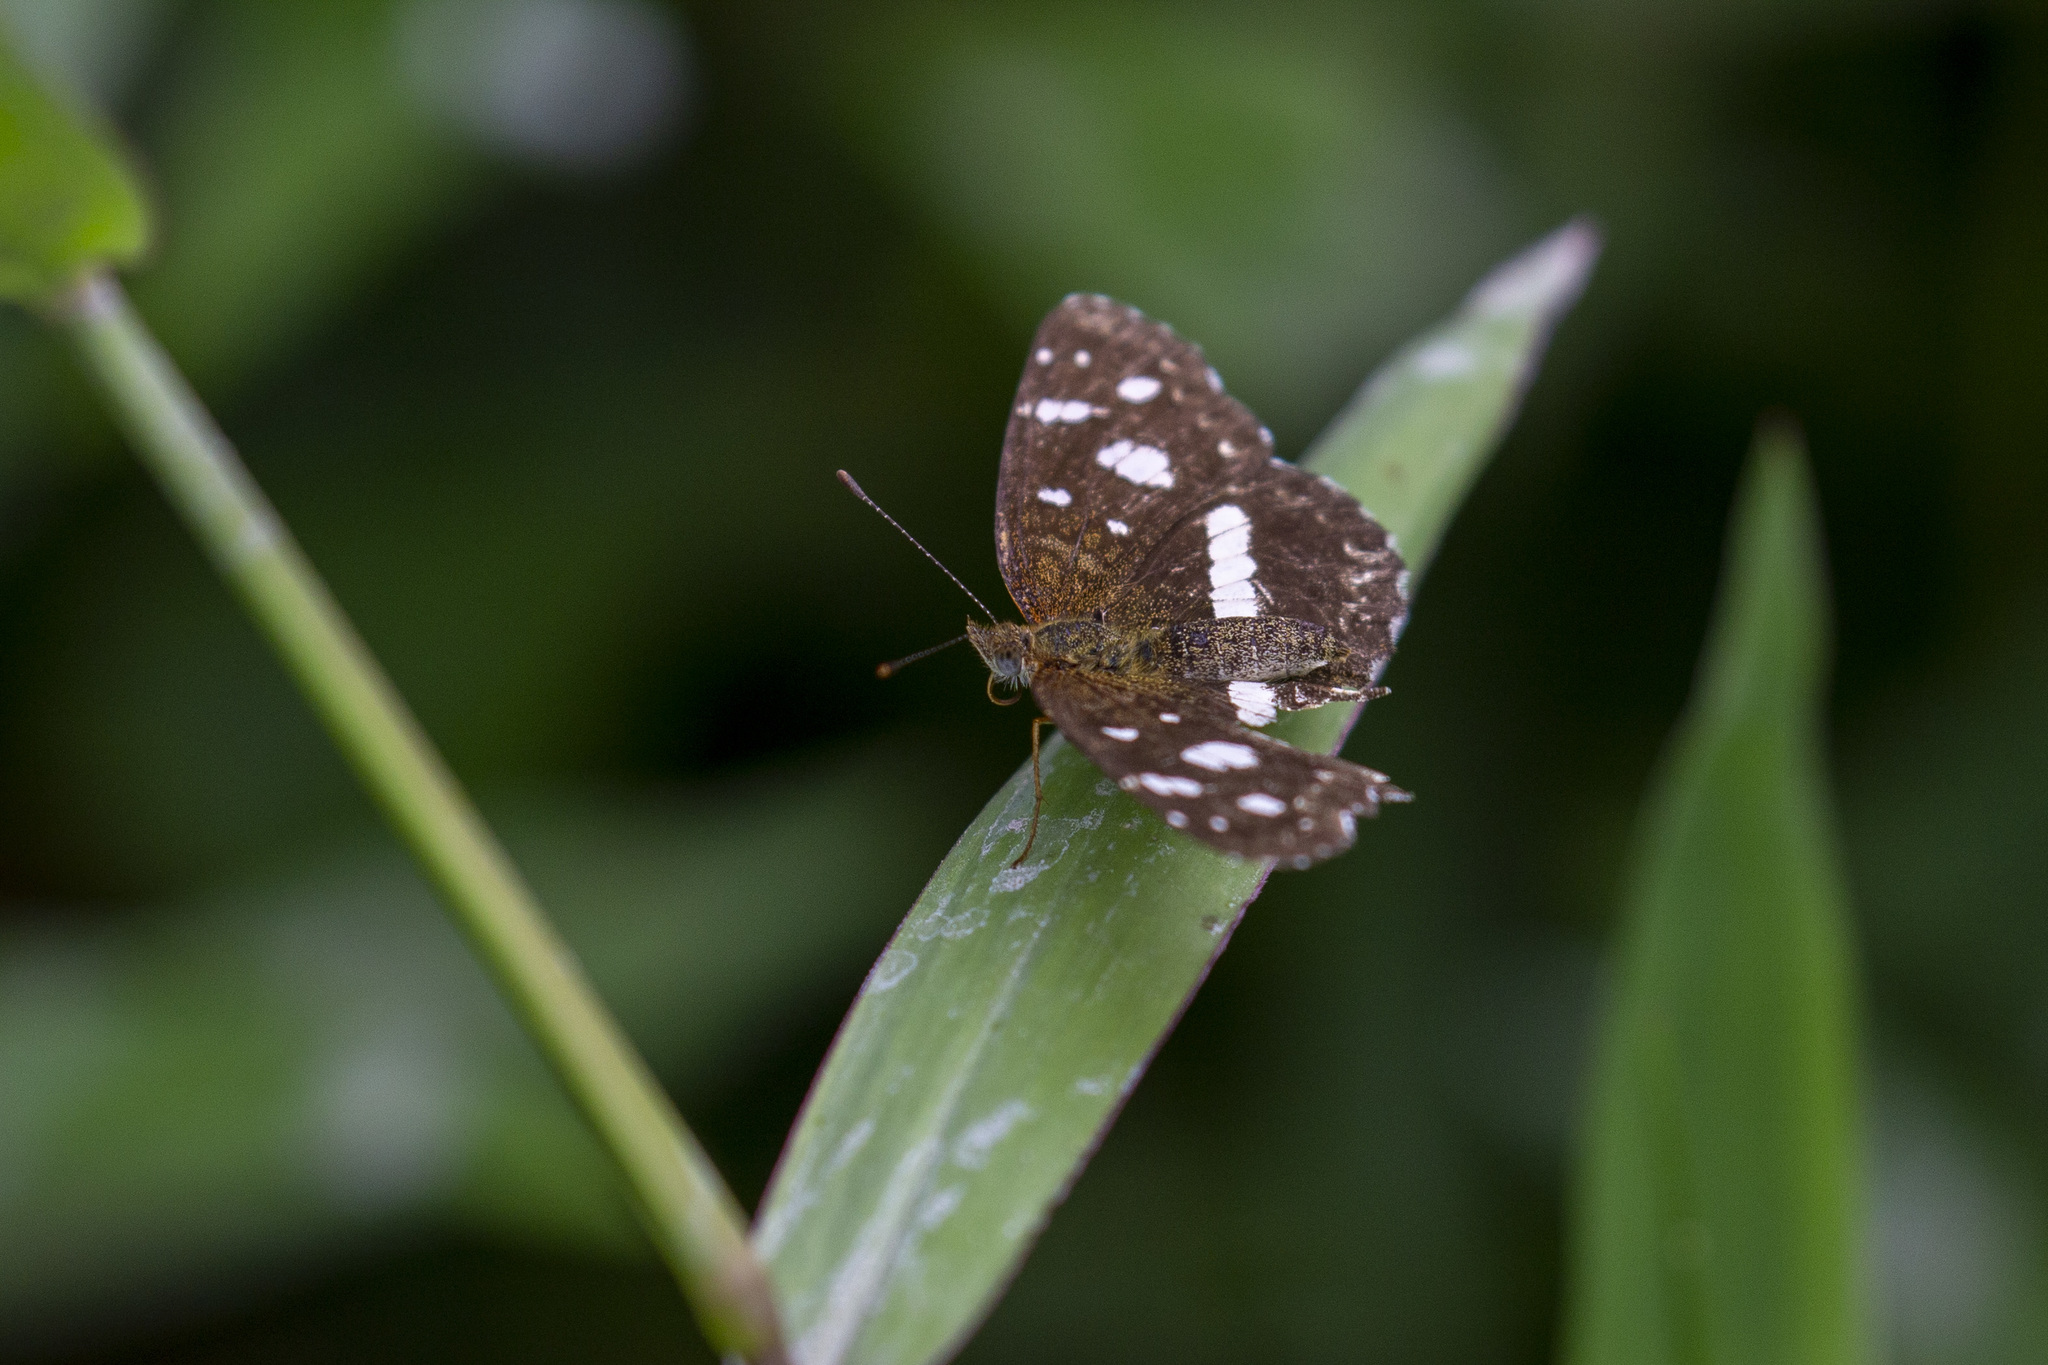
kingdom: Animalia
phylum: Arthropoda
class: Insecta
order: Lepidoptera
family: Nymphalidae
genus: Ortilia
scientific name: Ortilia ithra
